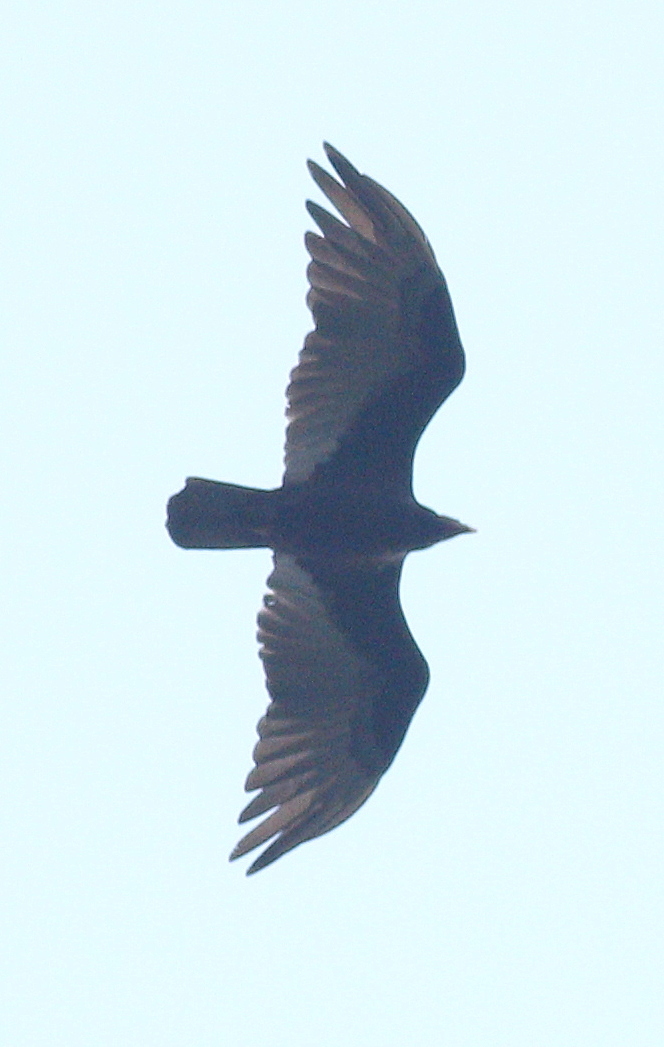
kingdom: Animalia
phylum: Chordata
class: Aves
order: Accipitriformes
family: Cathartidae
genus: Cathartes
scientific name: Cathartes aura
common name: Turkey vulture
